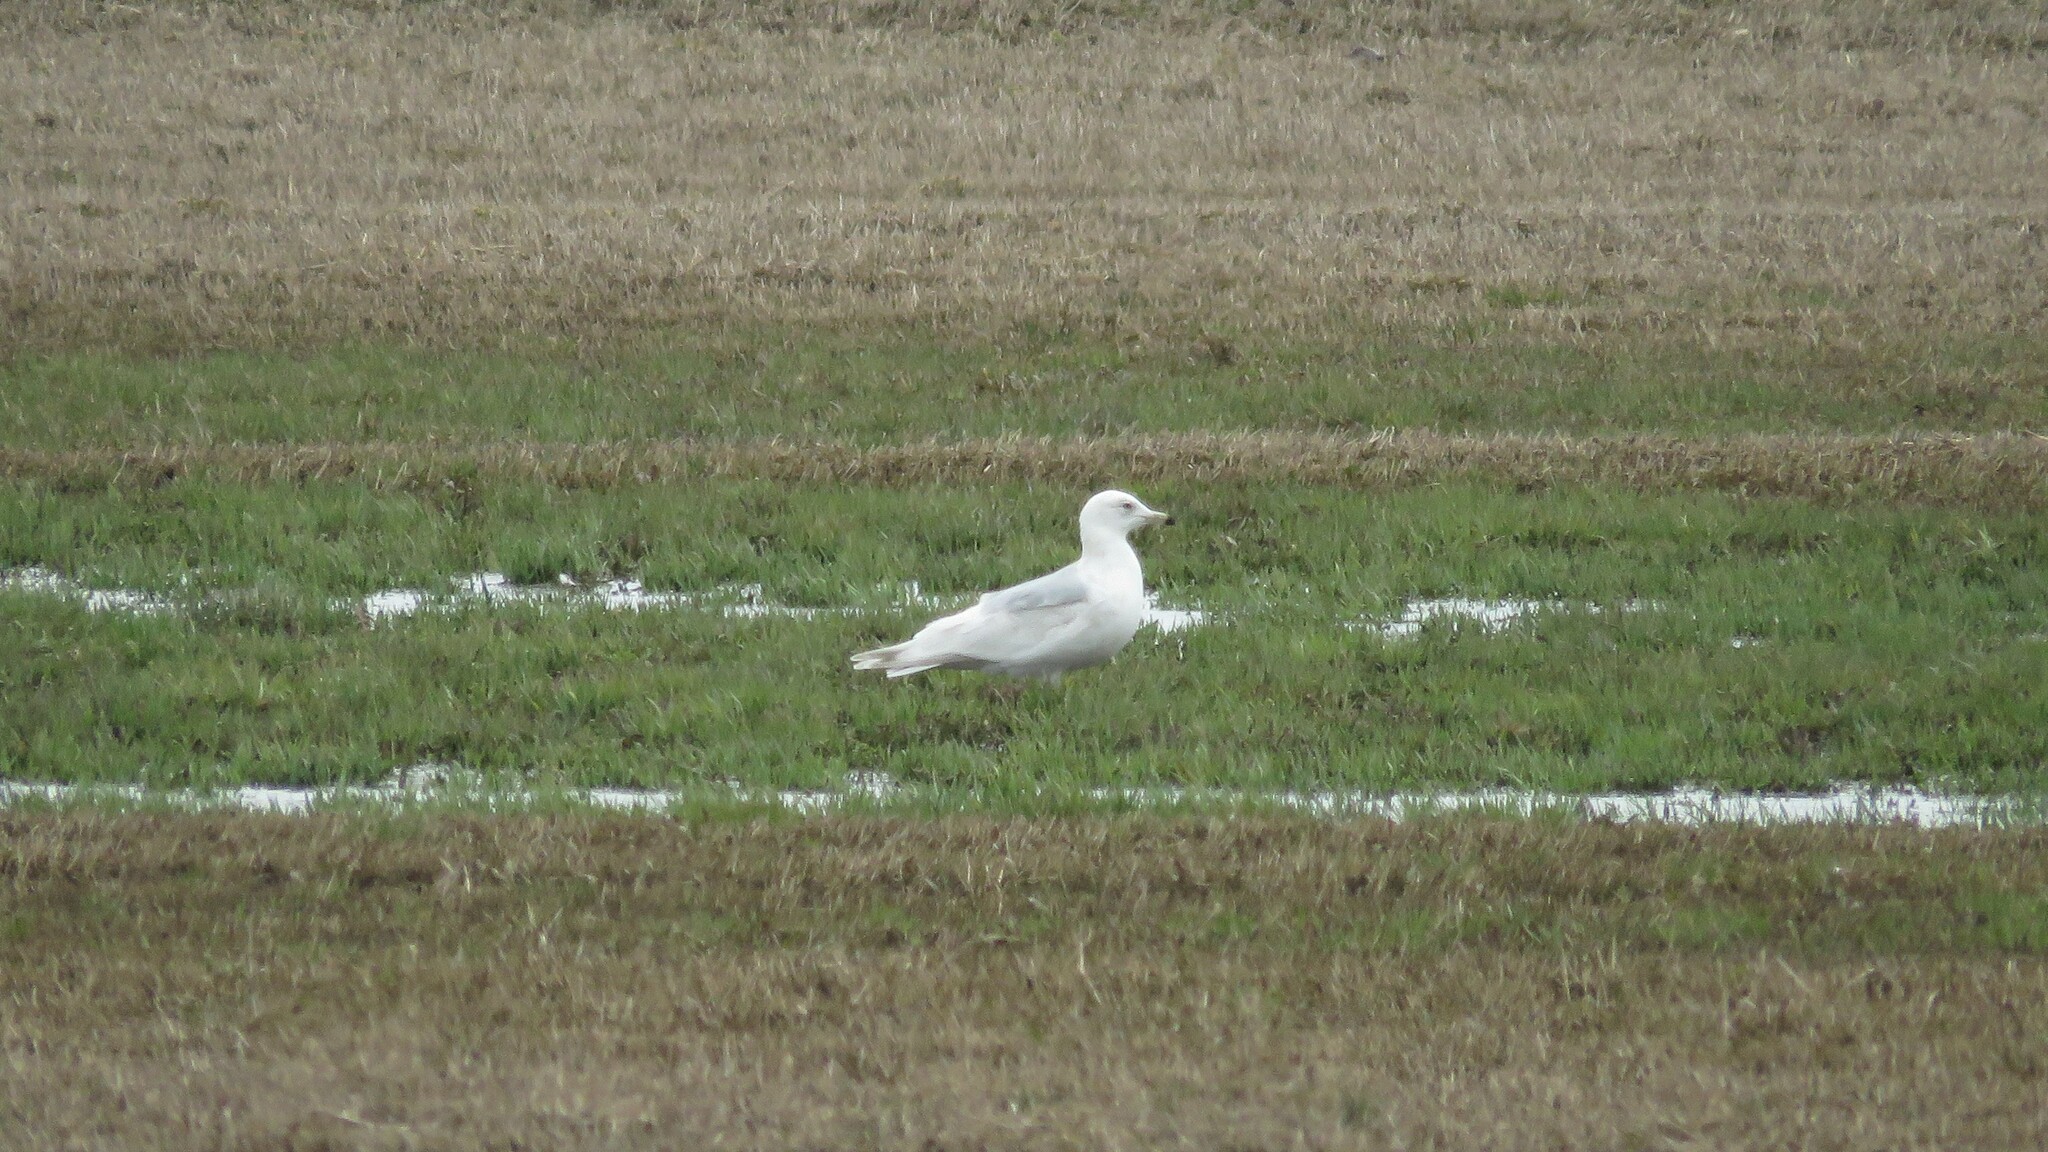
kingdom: Animalia
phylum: Chordata
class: Aves
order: Charadriiformes
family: Laridae
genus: Larus
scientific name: Larus hyperboreus
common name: Glaucous gull
